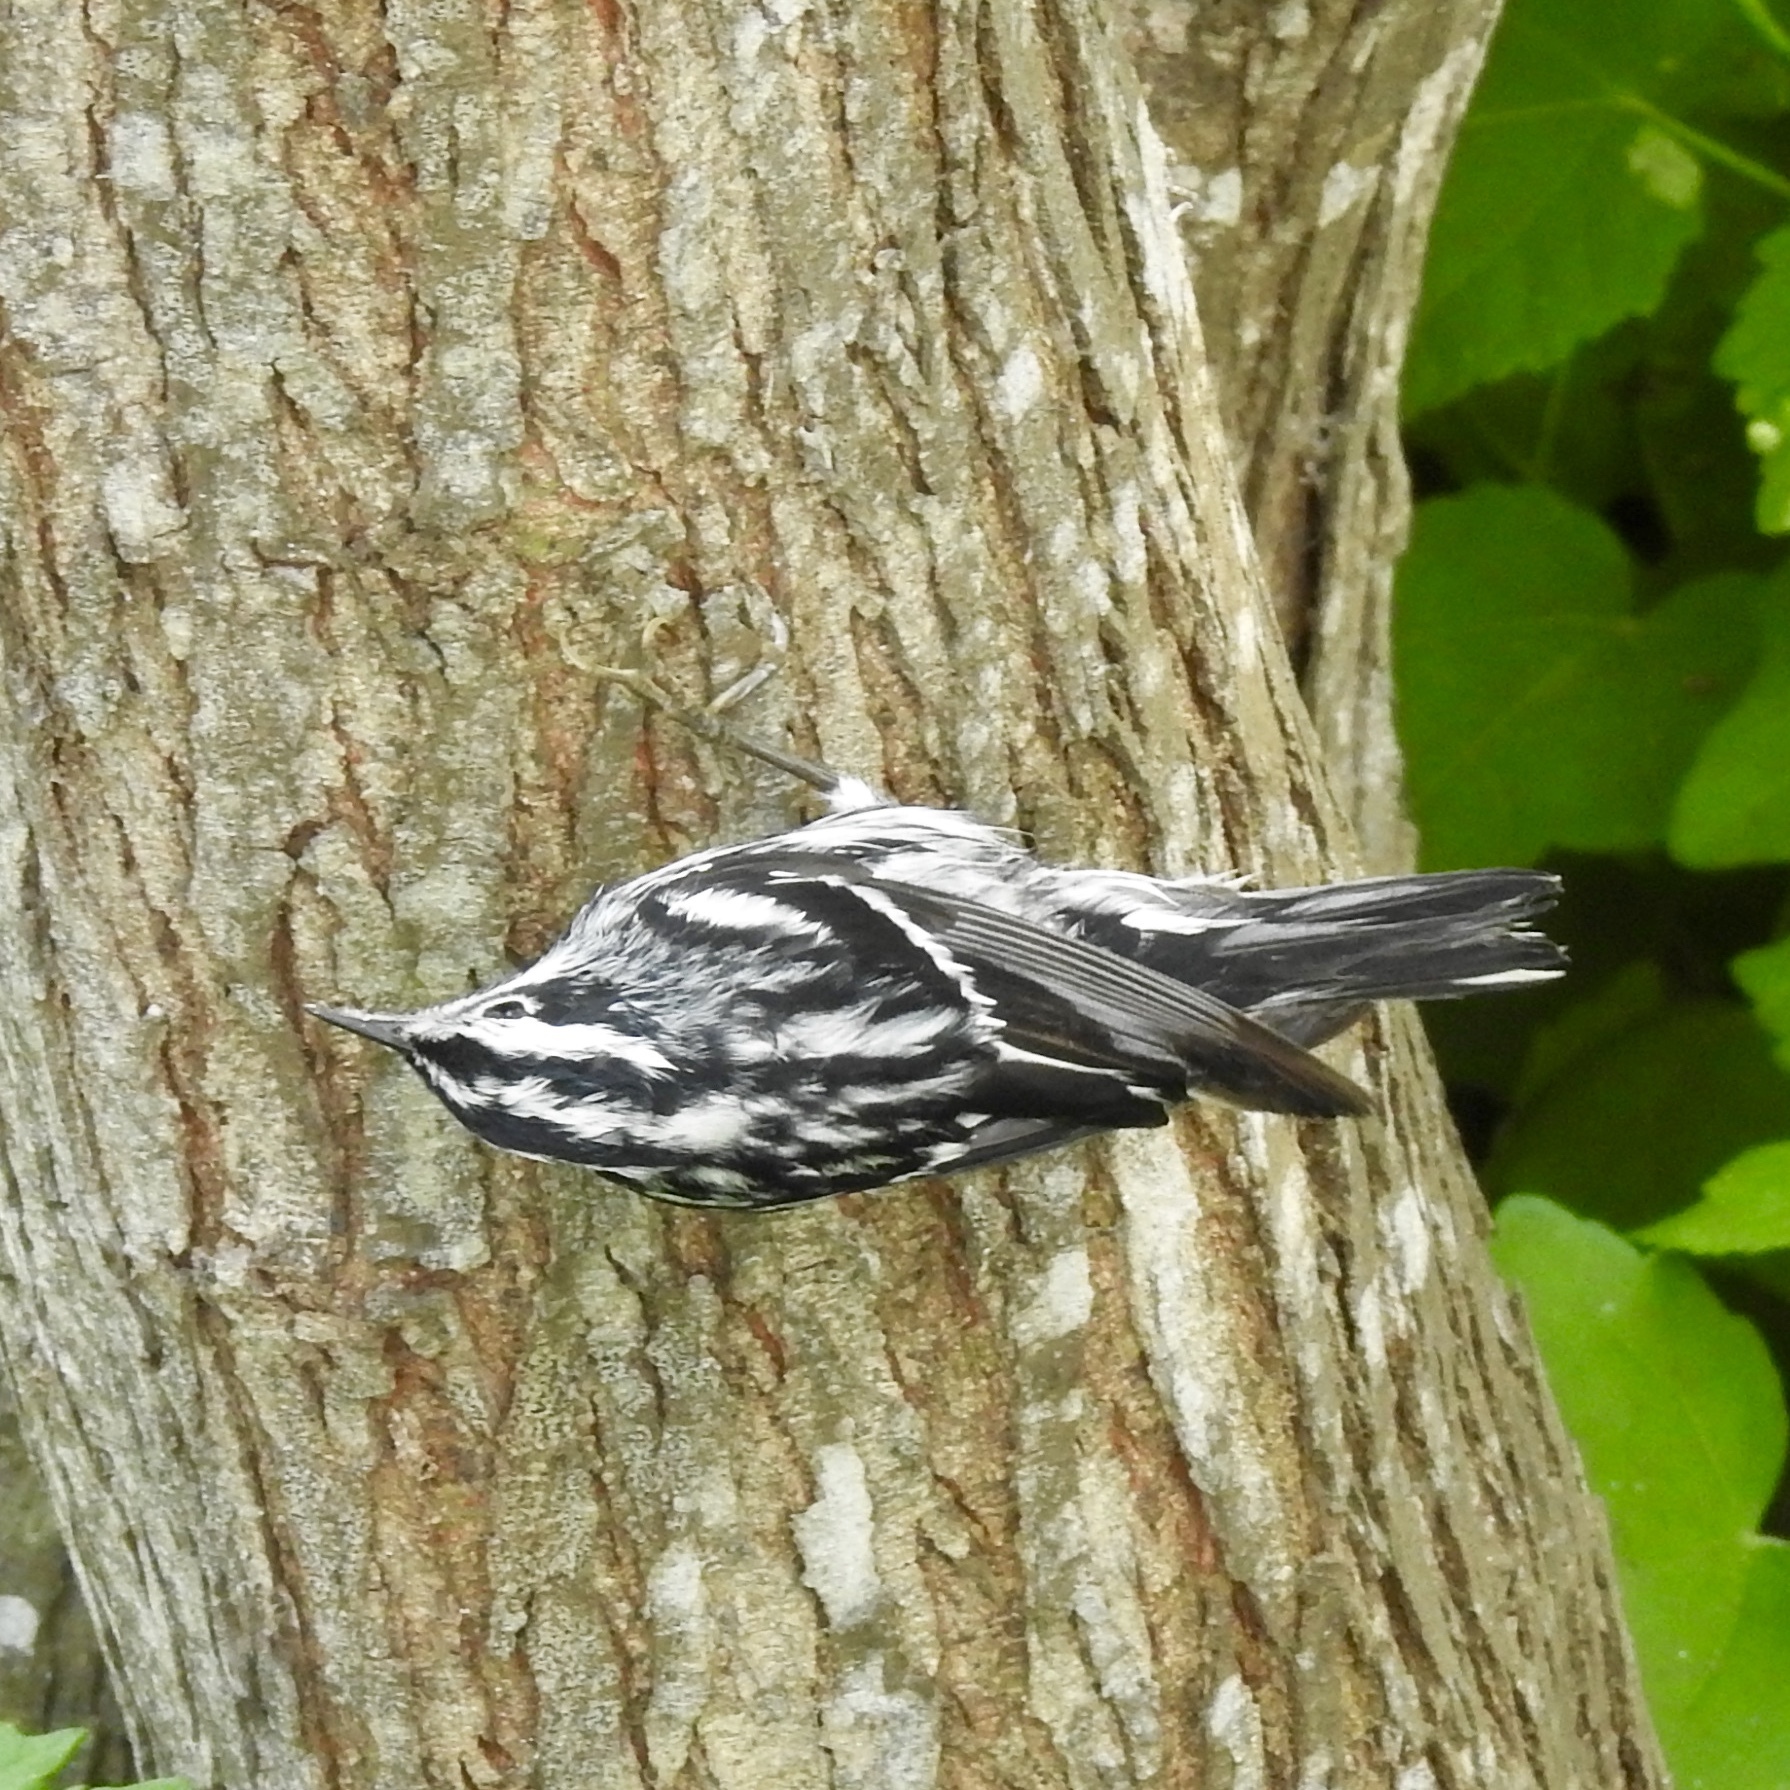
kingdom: Animalia
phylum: Chordata
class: Aves
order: Passeriformes
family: Parulidae
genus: Mniotilta
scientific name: Mniotilta varia
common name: Black-and-white warbler
